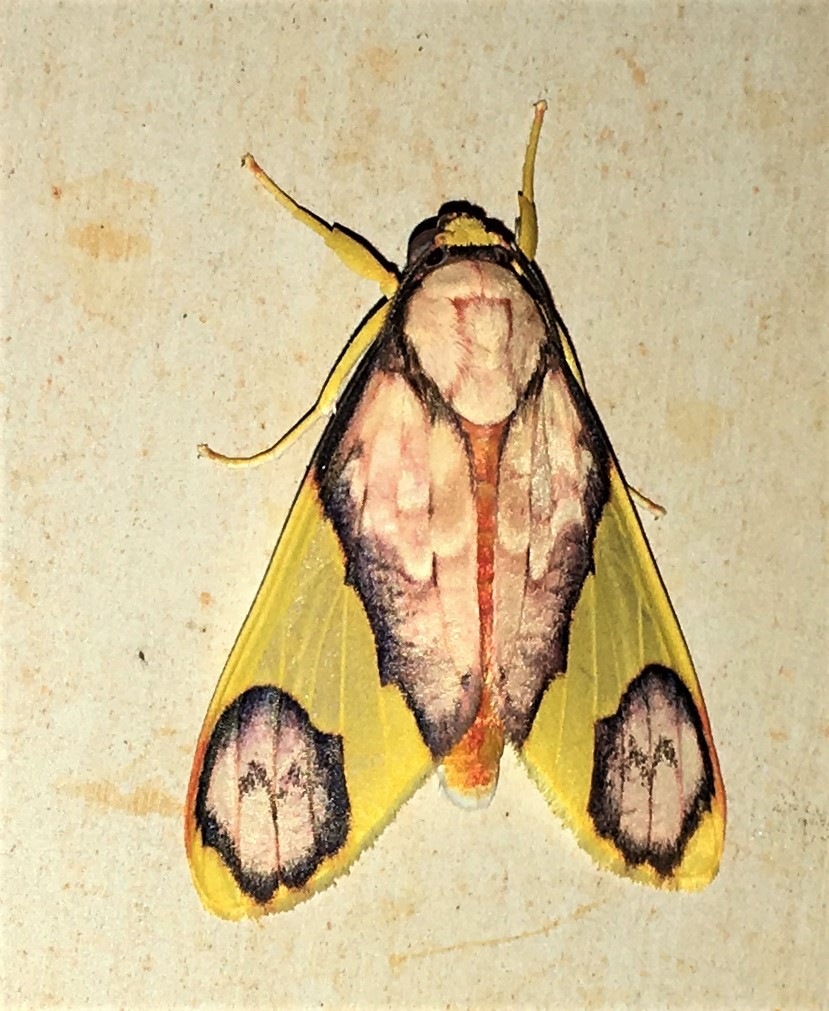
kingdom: Animalia
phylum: Arthropoda
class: Insecta
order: Lepidoptera
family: Erebidae
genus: Paranerita
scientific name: Paranerita metapyria
